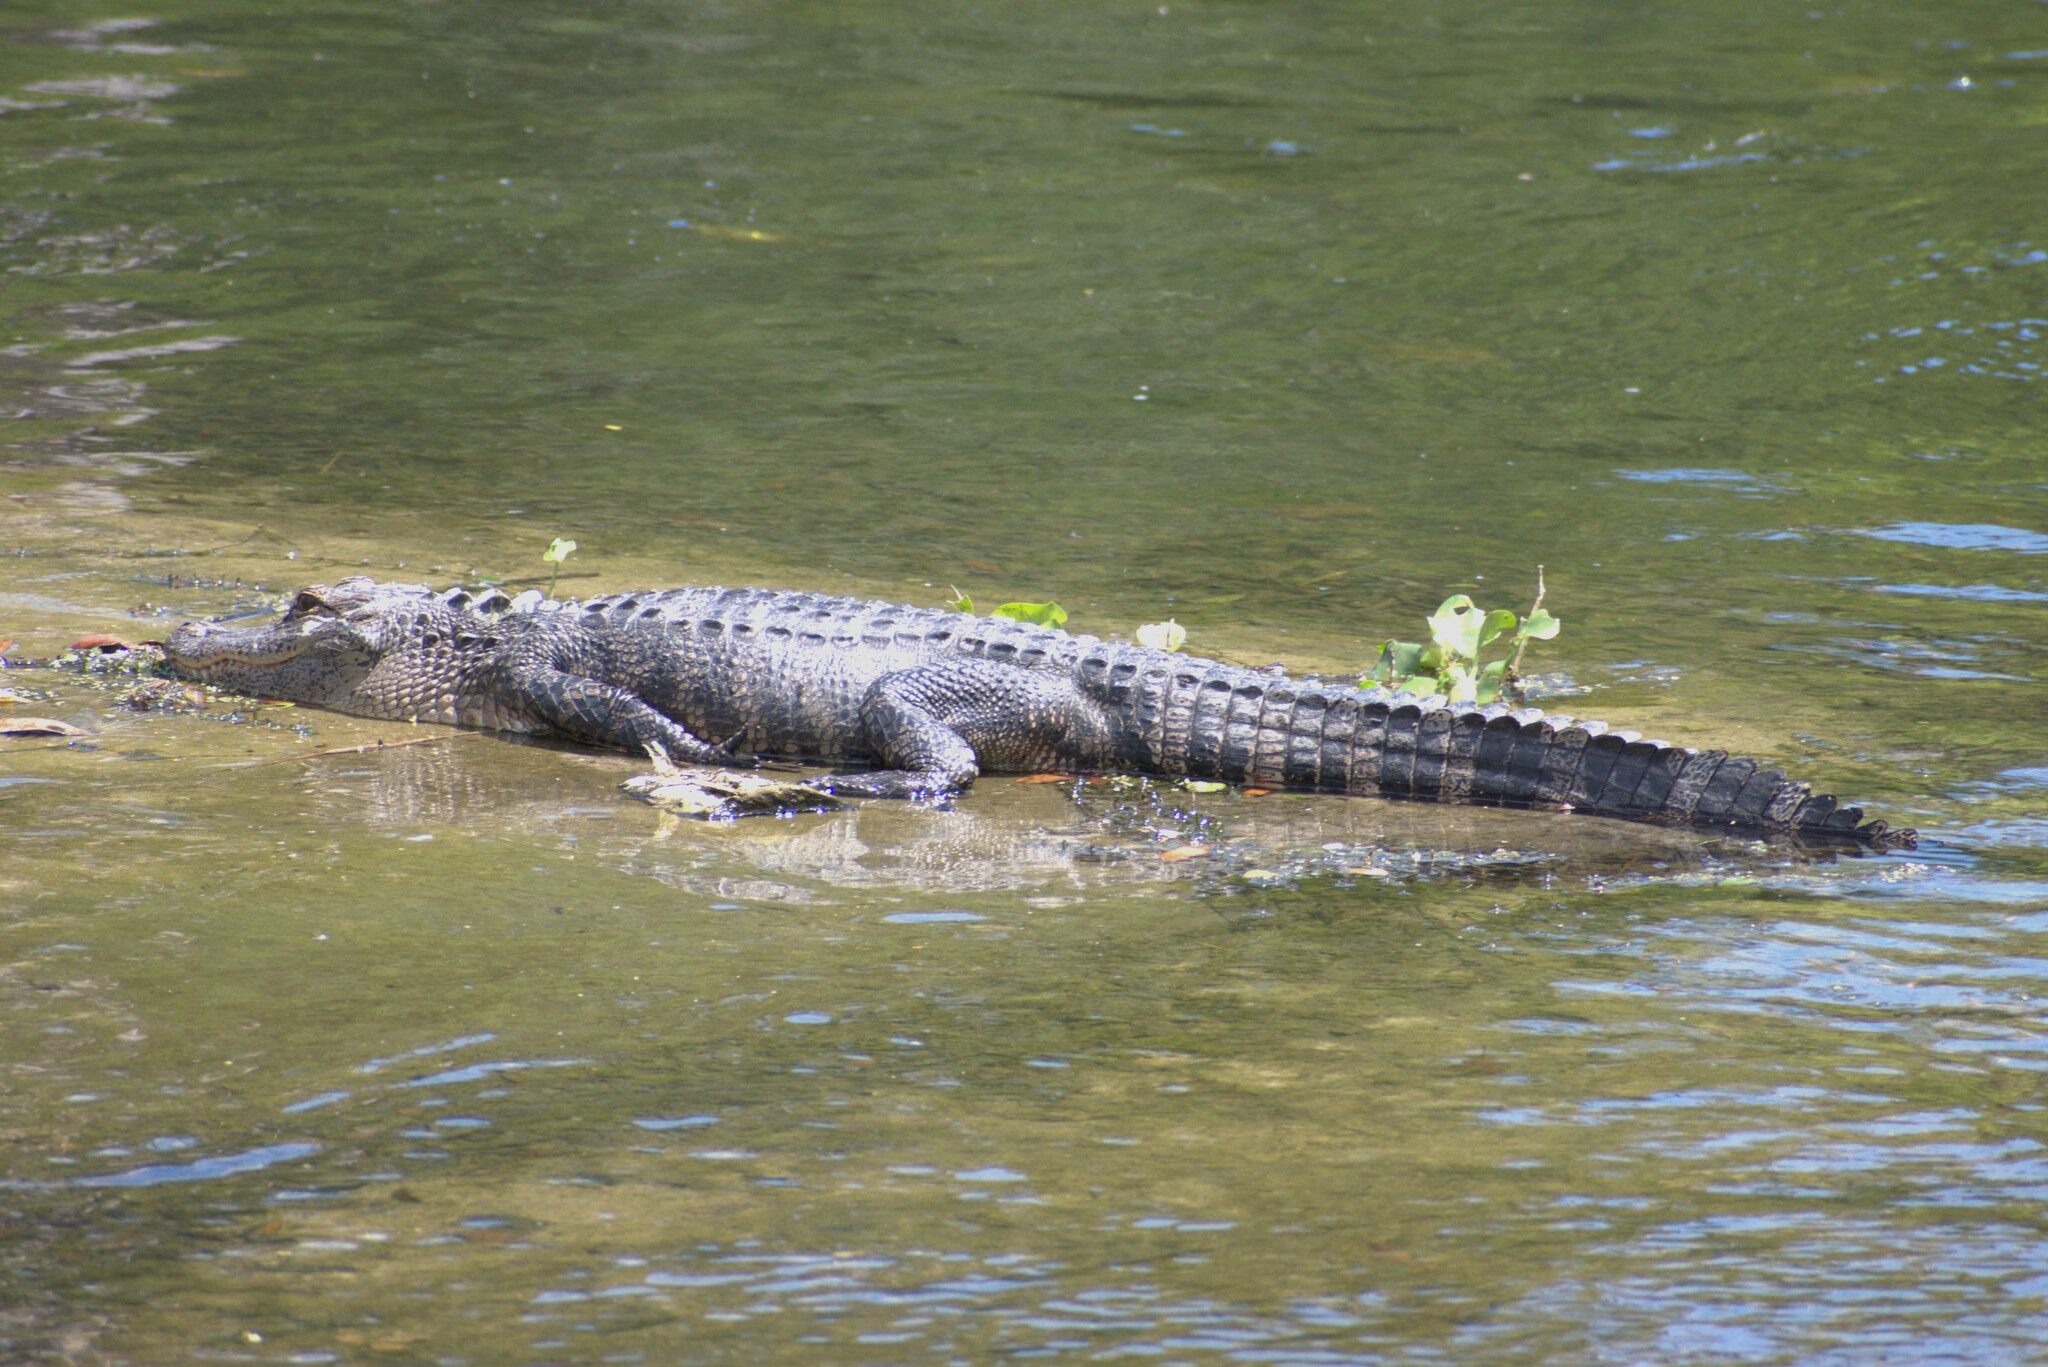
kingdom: Animalia
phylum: Chordata
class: Crocodylia
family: Alligatoridae
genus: Alligator
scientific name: Alligator mississippiensis
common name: American alligator
